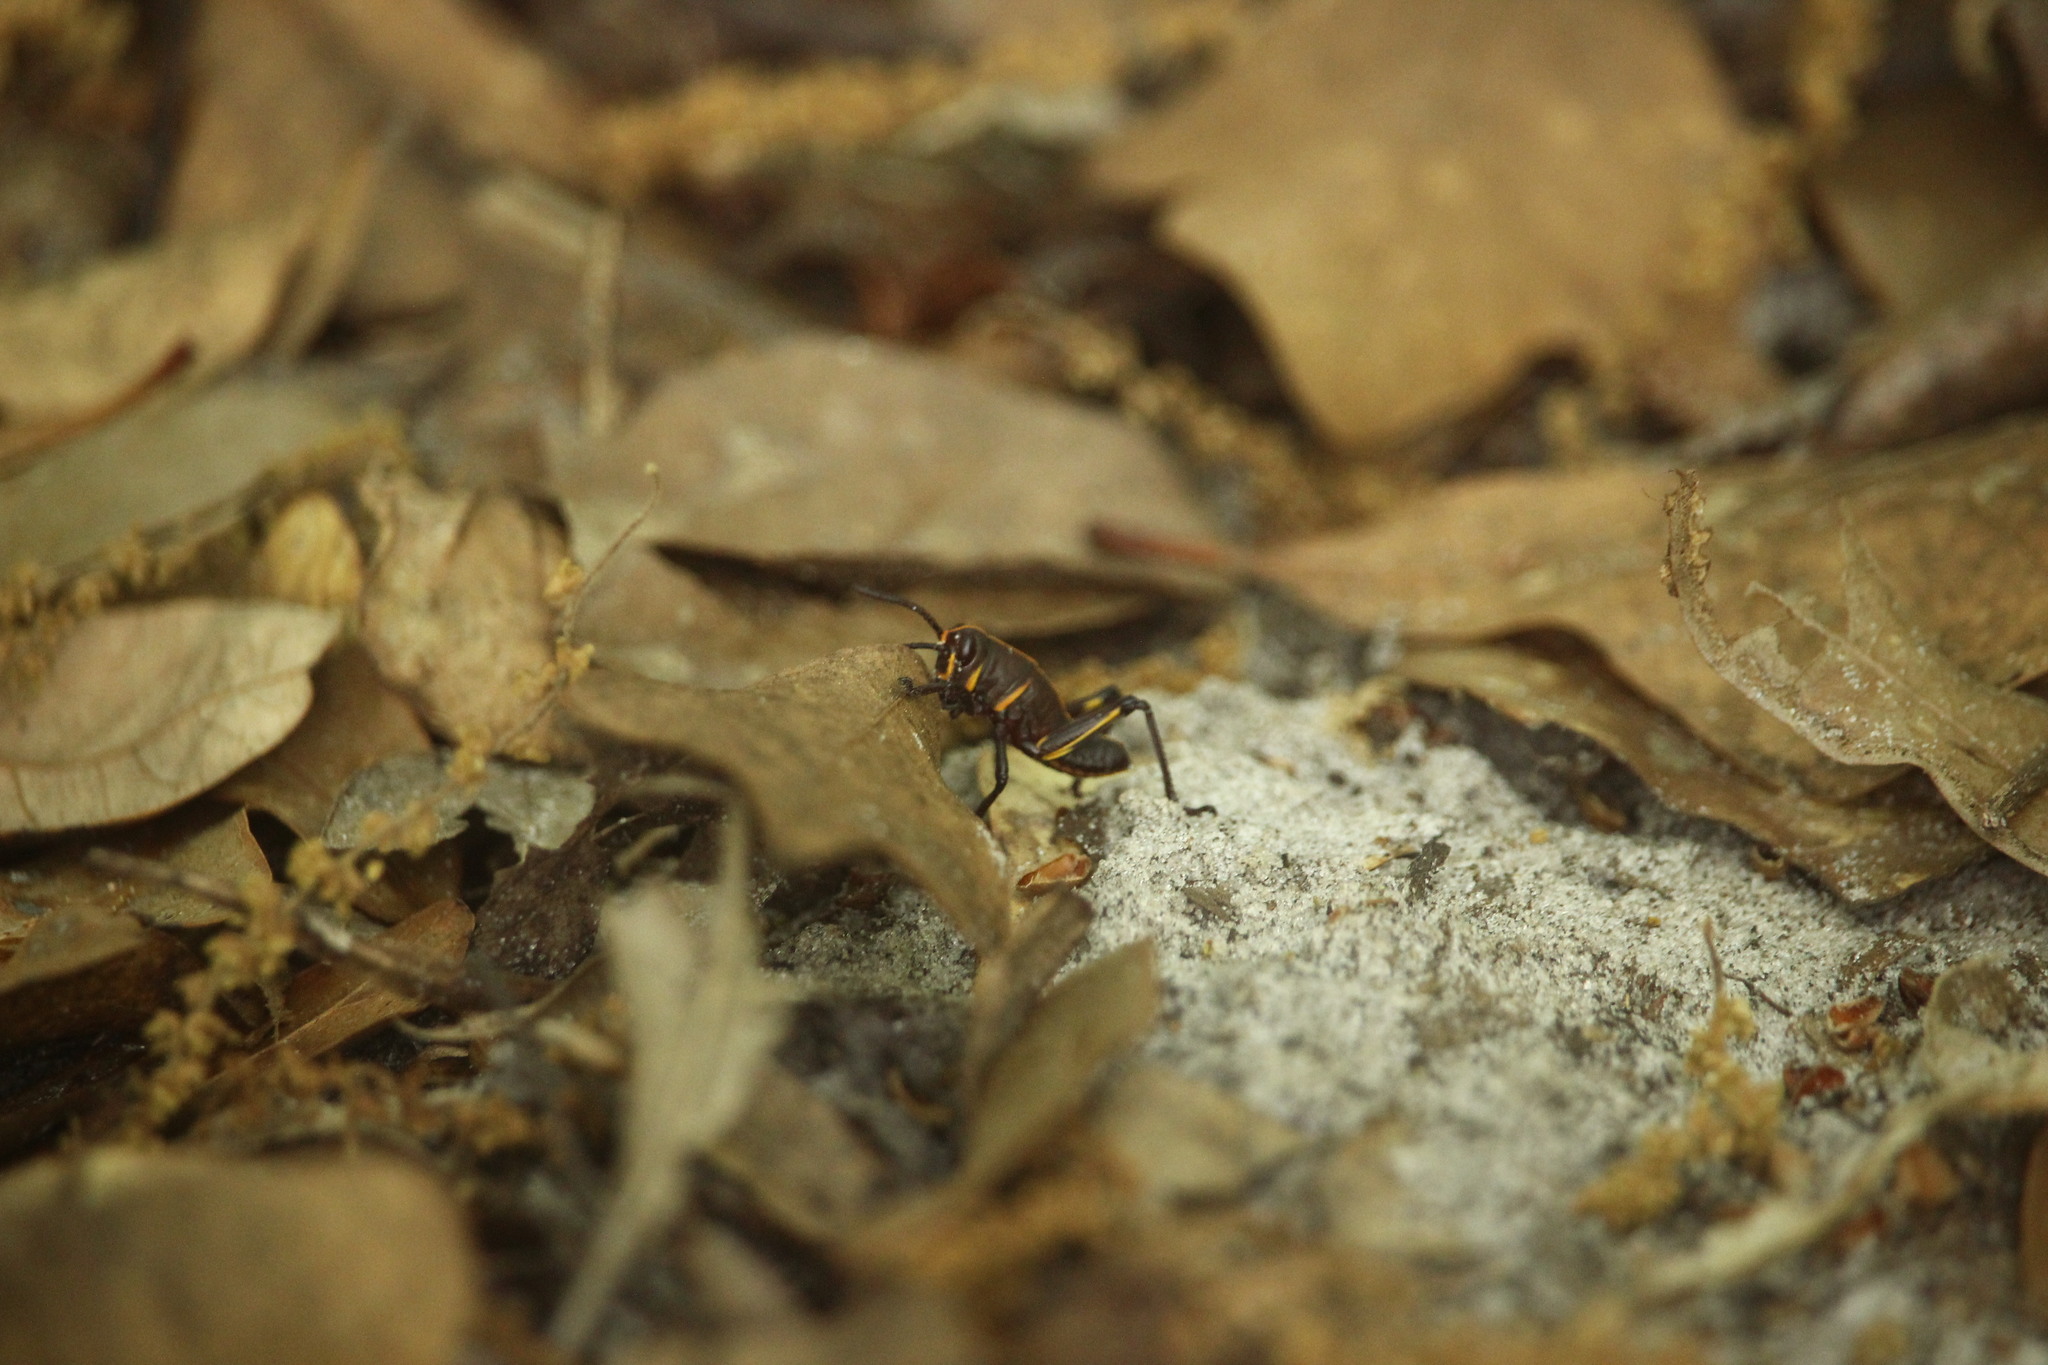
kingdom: Animalia
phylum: Arthropoda
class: Insecta
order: Orthoptera
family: Romaleidae
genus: Romalea
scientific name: Romalea microptera
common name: Eastern lubber grasshopper
